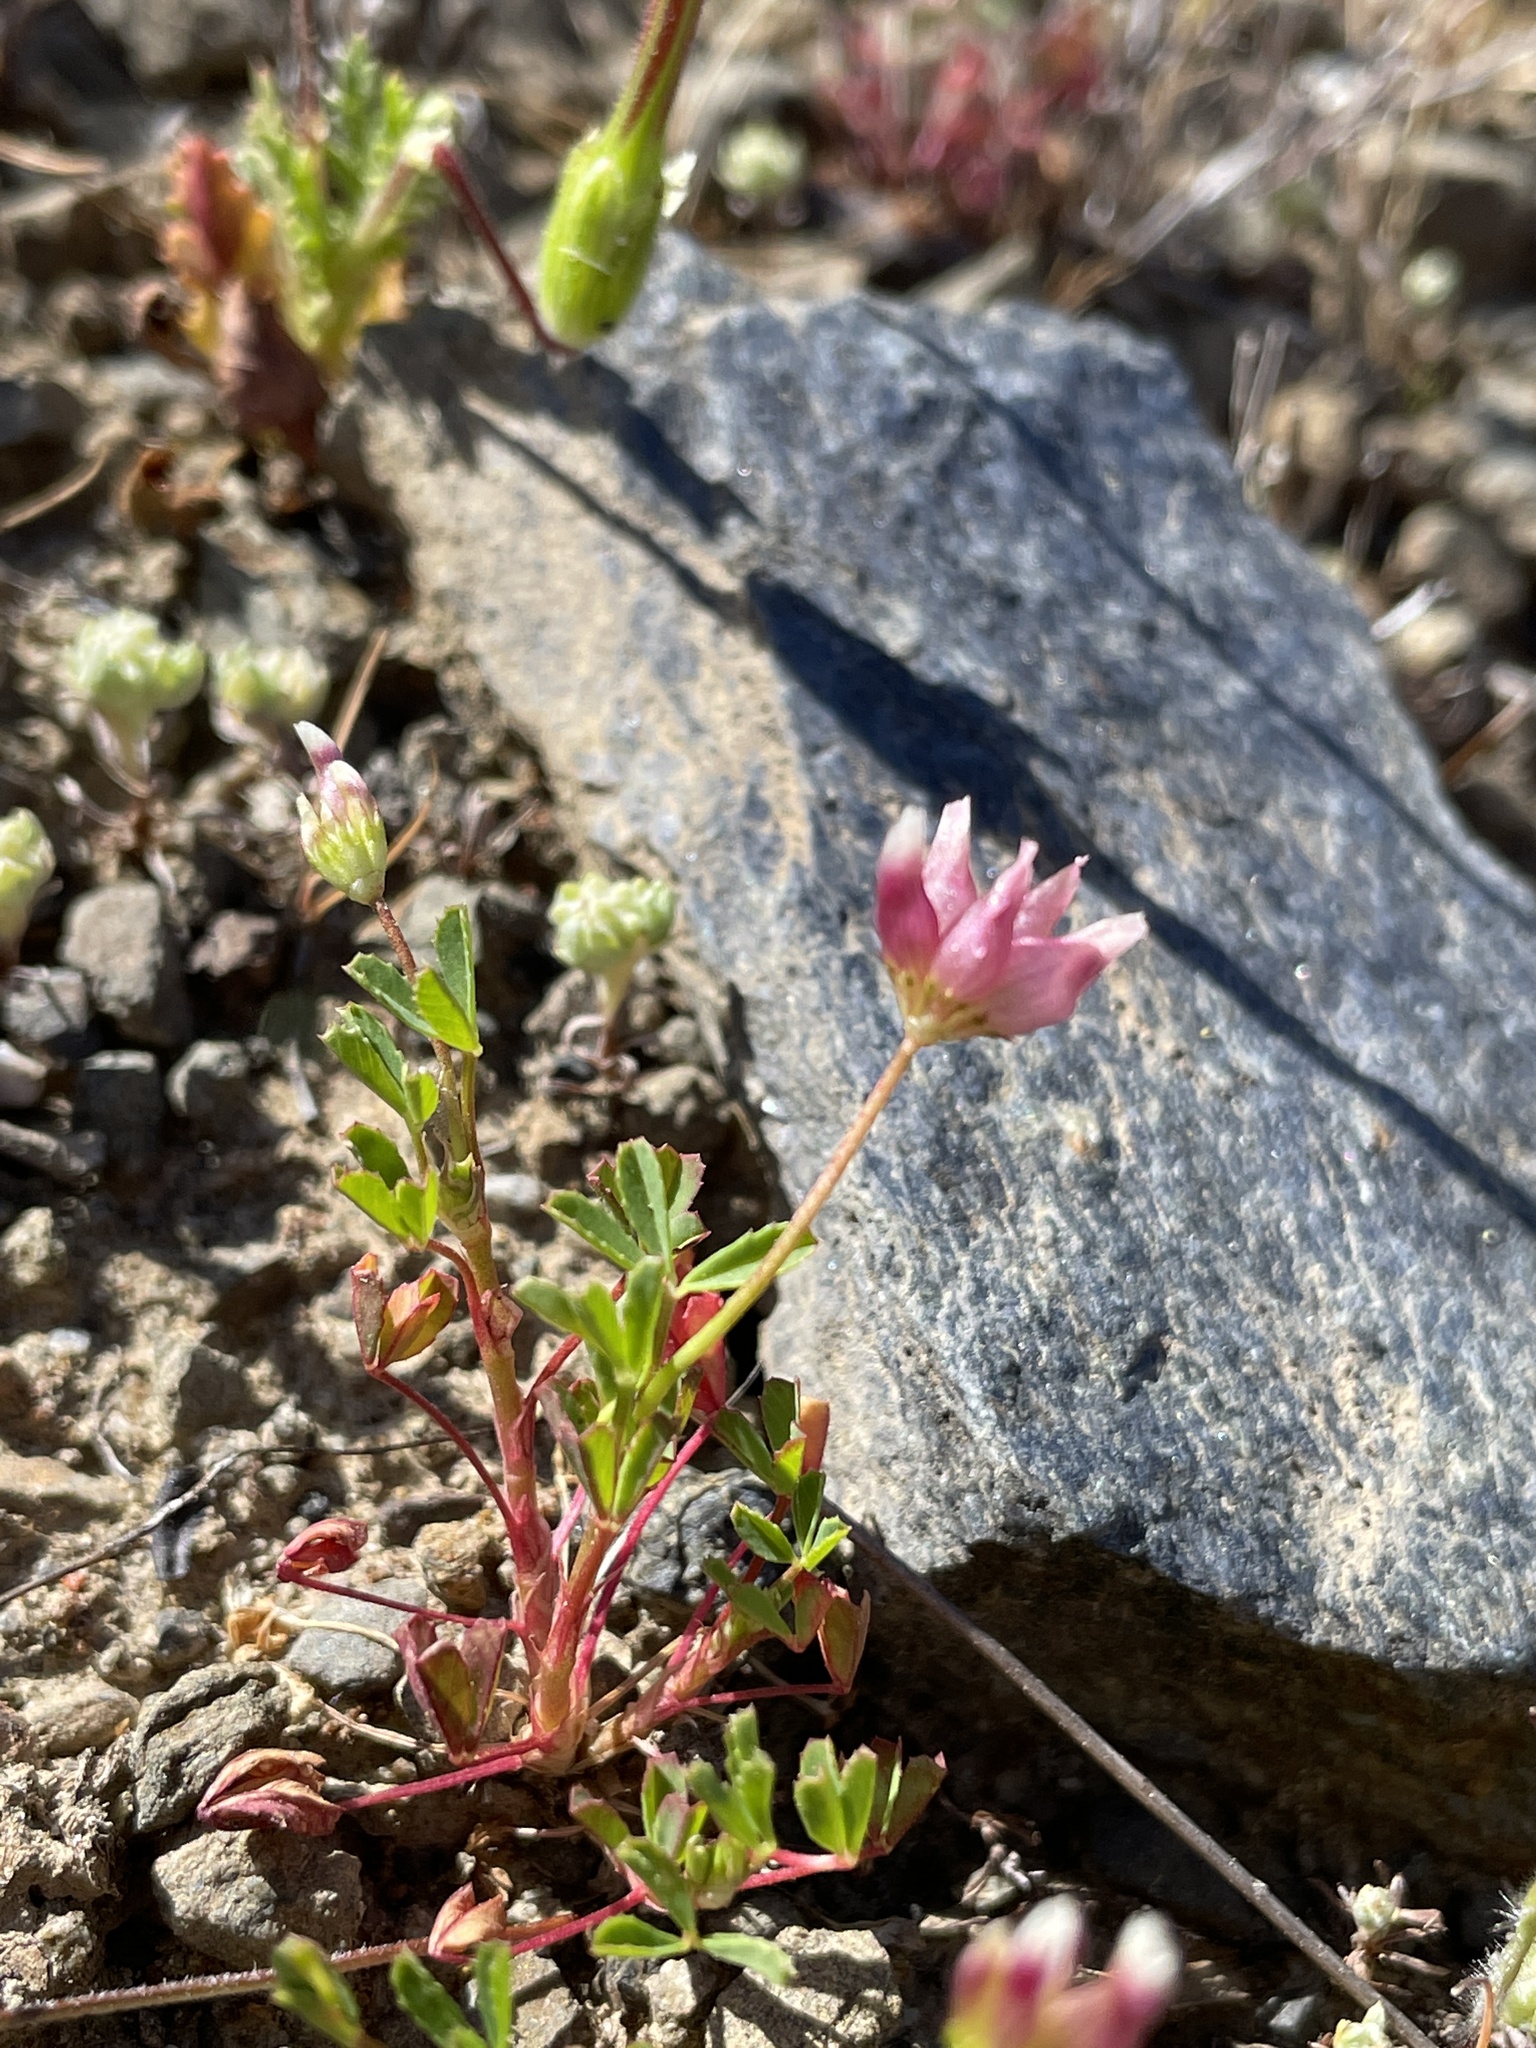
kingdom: Plantae
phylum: Tracheophyta
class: Magnoliopsida
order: Fabales
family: Fabaceae
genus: Trifolium
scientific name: Trifolium depauperatum
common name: Poverty clover
